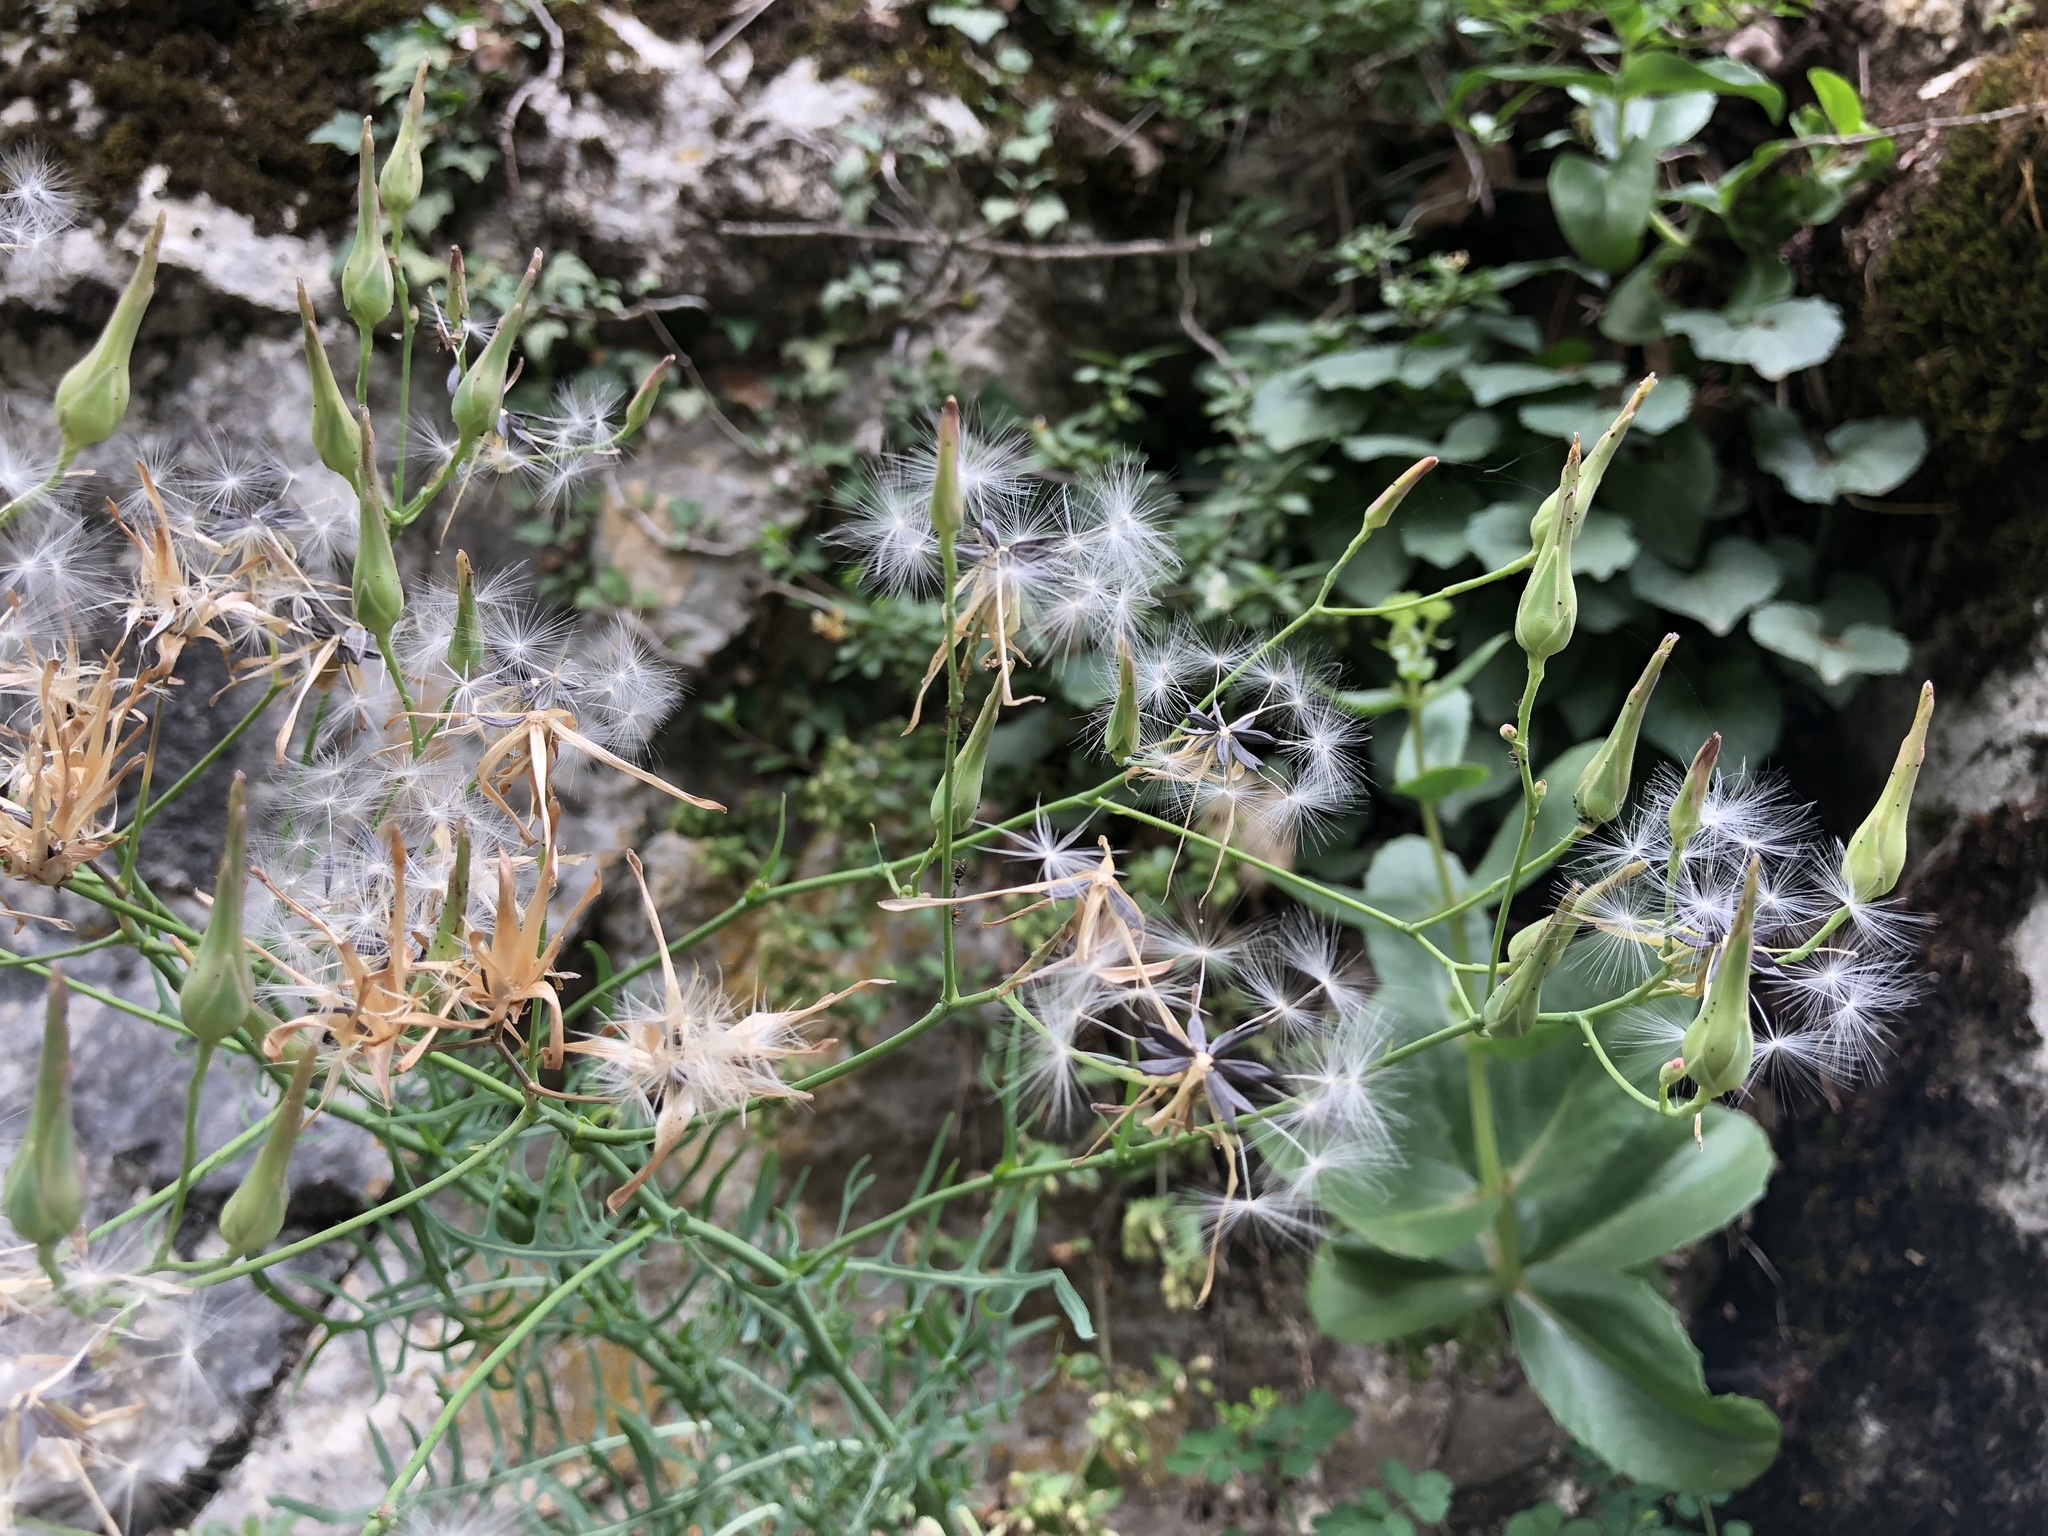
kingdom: Plantae
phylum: Tracheophyta
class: Magnoliopsida
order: Asterales
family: Asteraceae
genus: Lactuca
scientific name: Lactuca perennis
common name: Mountain lettuce
